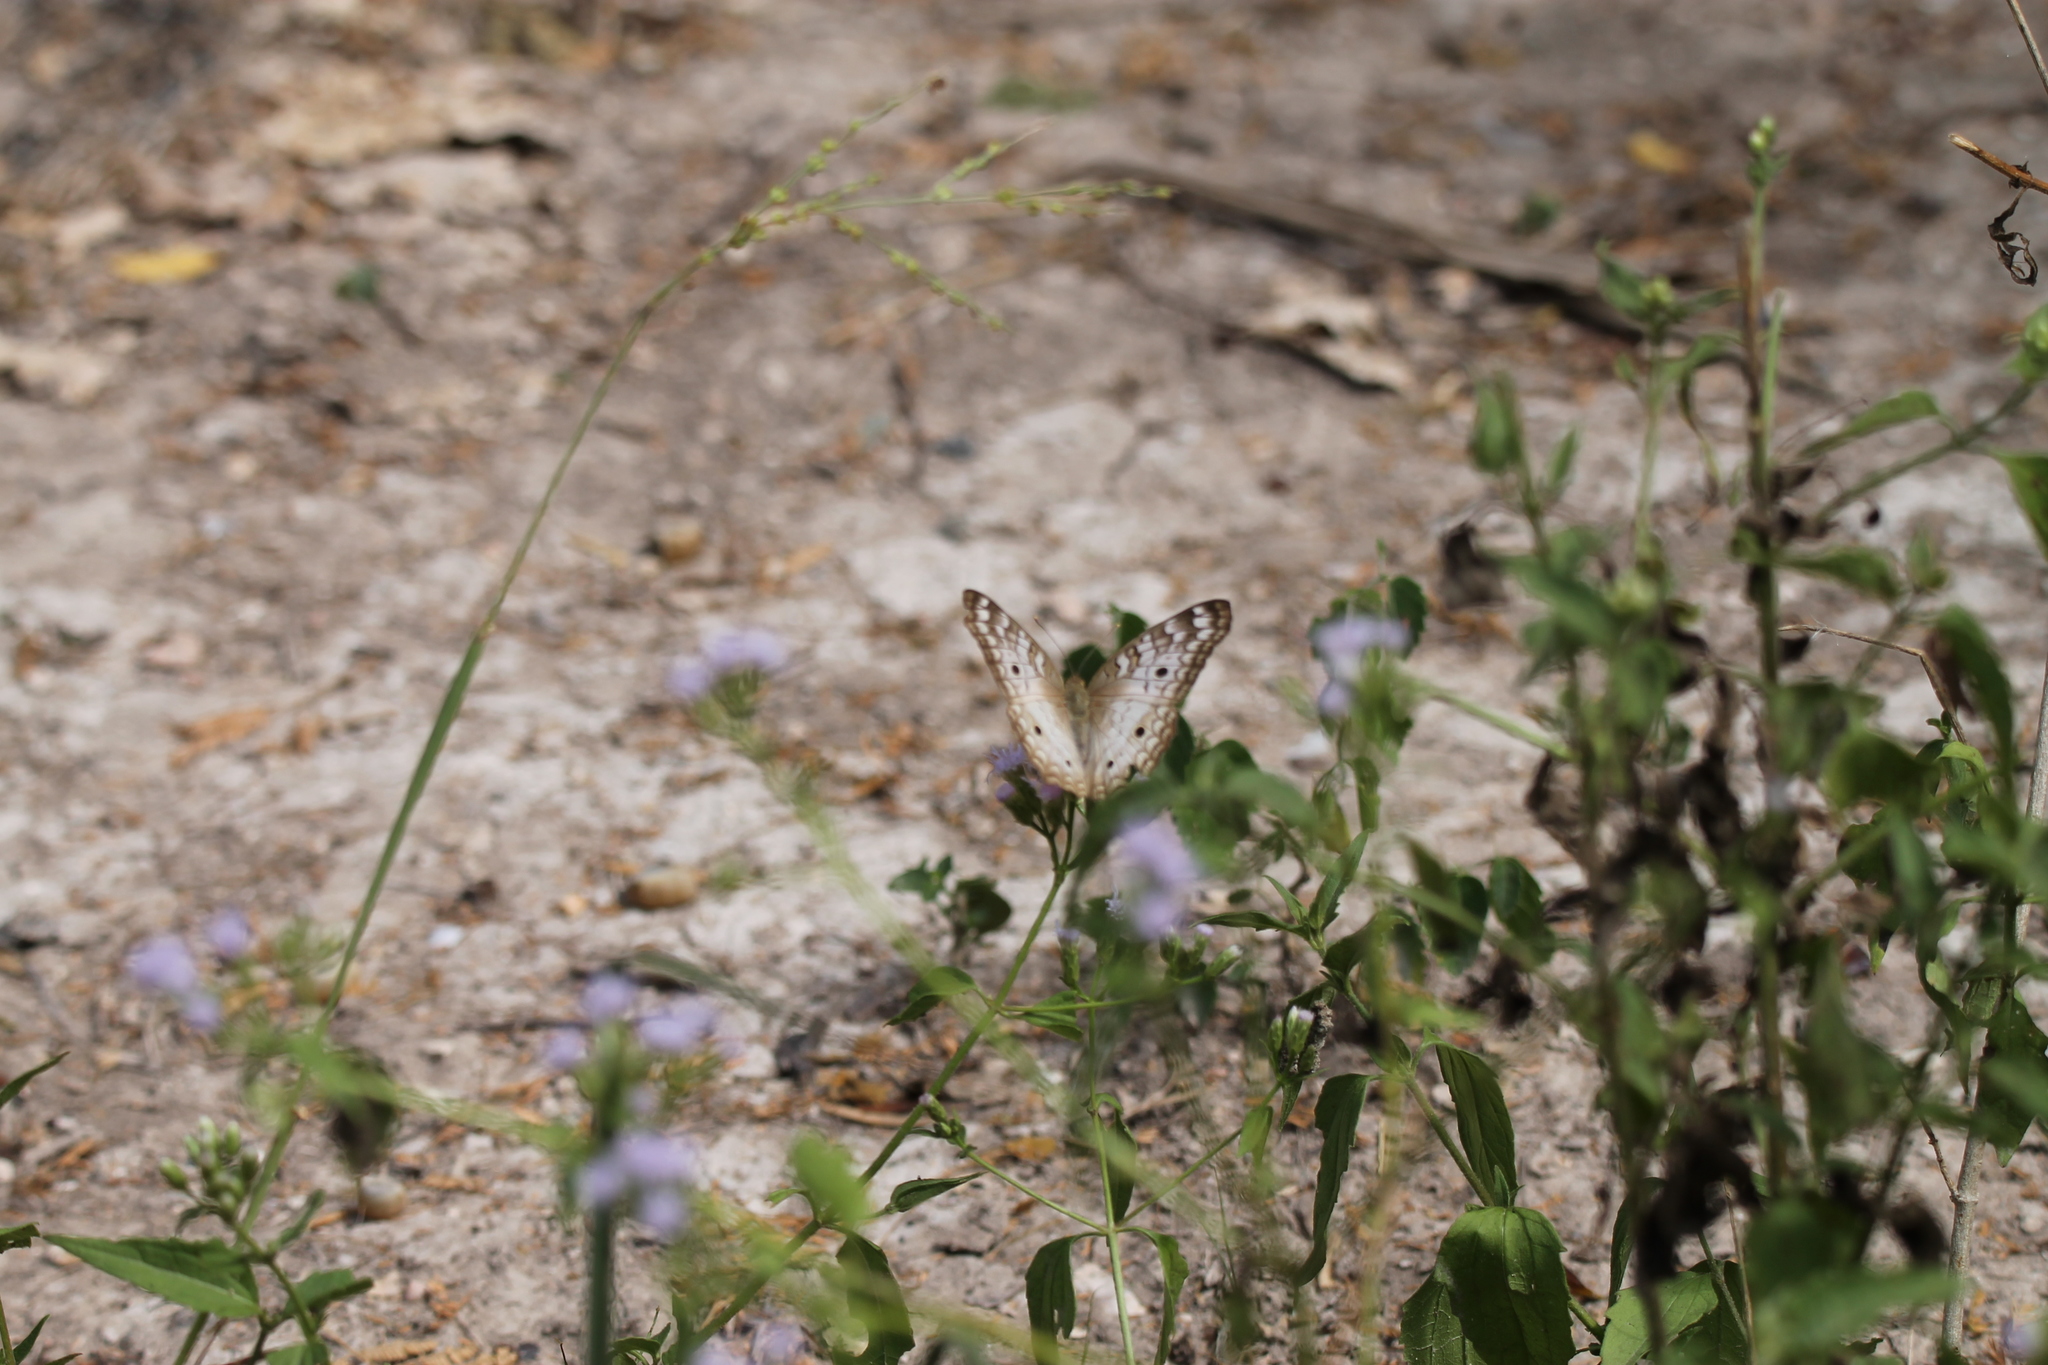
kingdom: Animalia
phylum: Arthropoda
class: Insecta
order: Lepidoptera
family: Nymphalidae
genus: Anartia
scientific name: Anartia jatrophae
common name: White peacock
